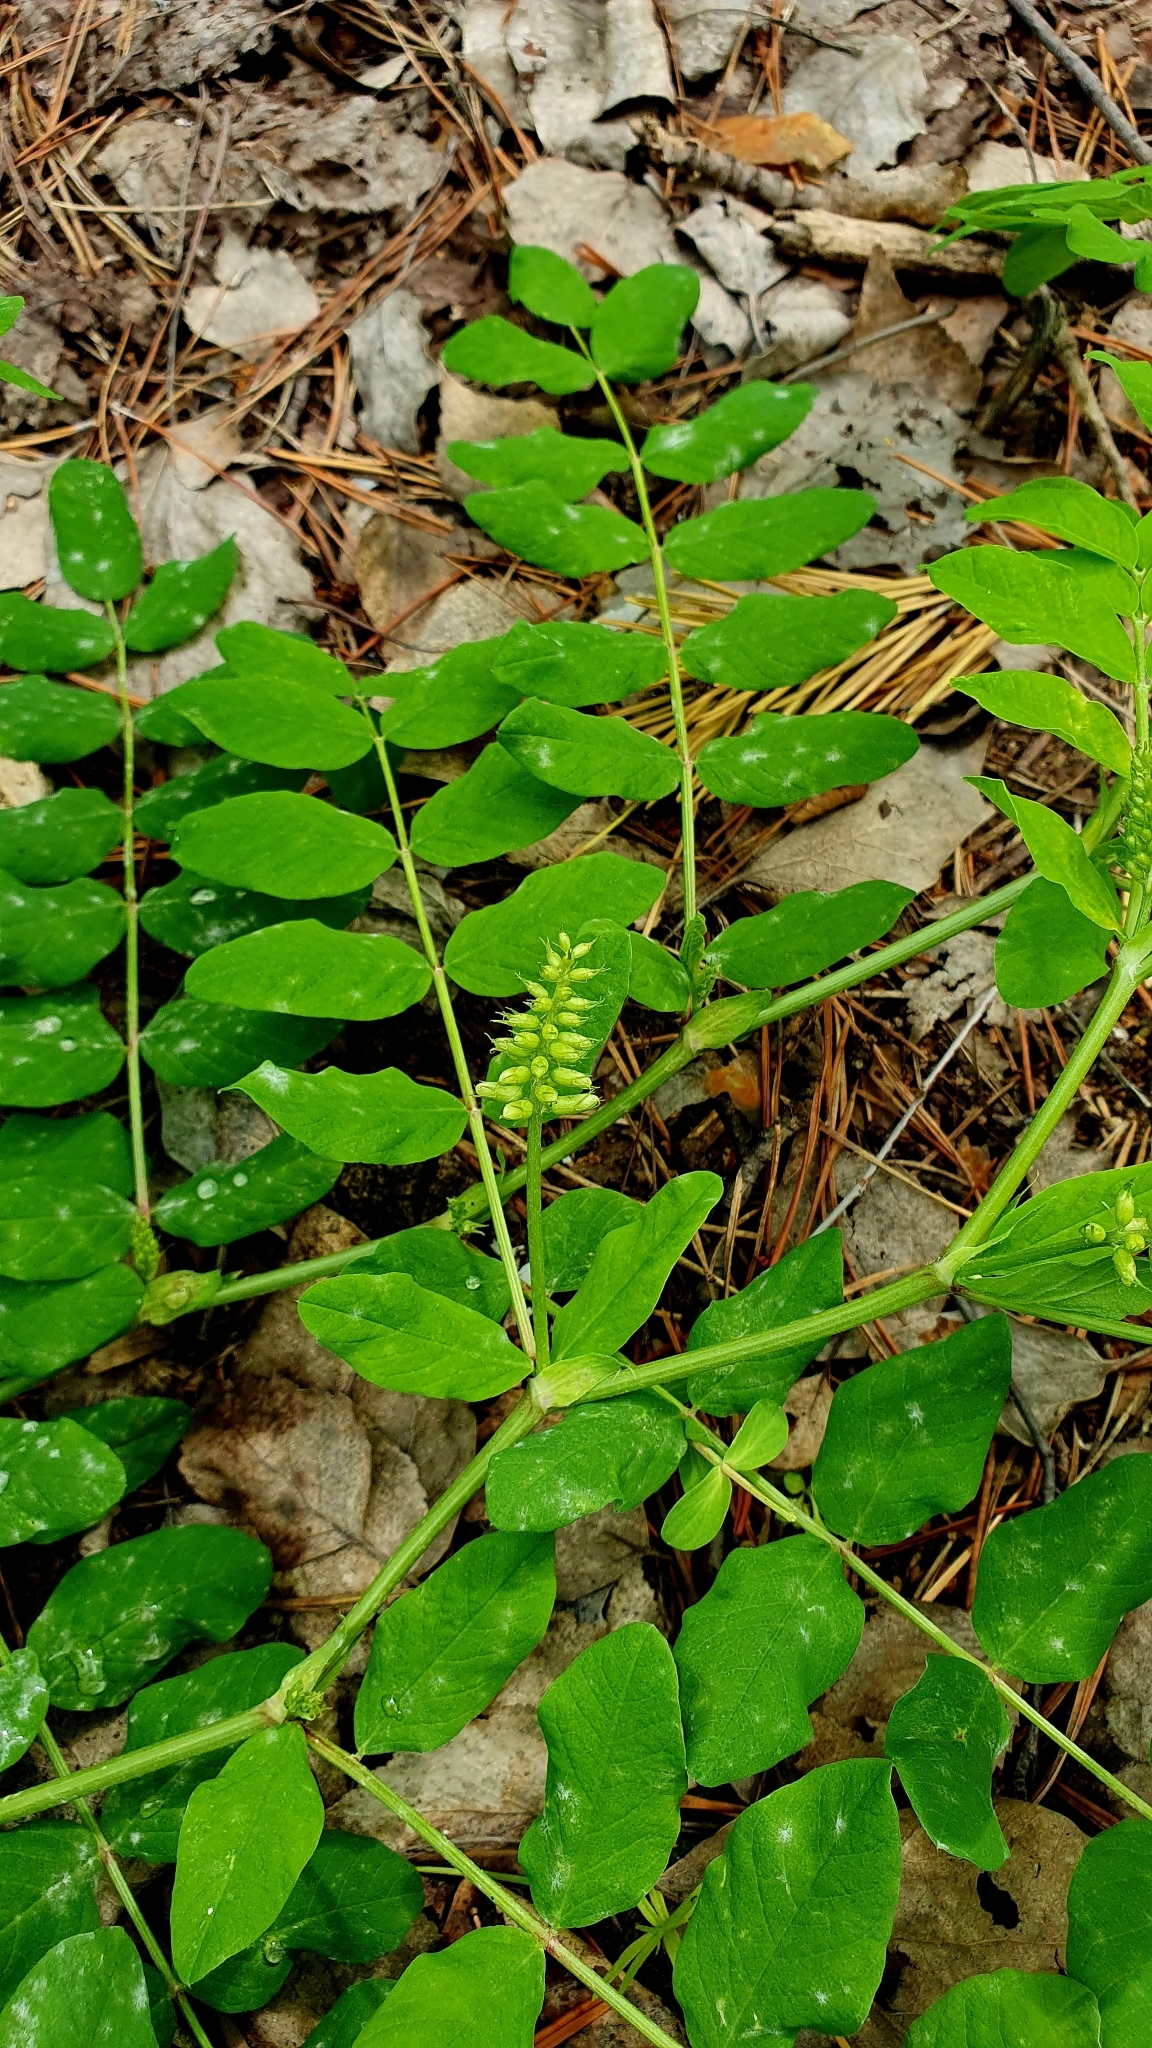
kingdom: Plantae
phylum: Tracheophyta
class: Magnoliopsida
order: Fabales
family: Fabaceae
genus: Astragalus
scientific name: Astragalus glycyphyllos
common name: Wild liquorice
